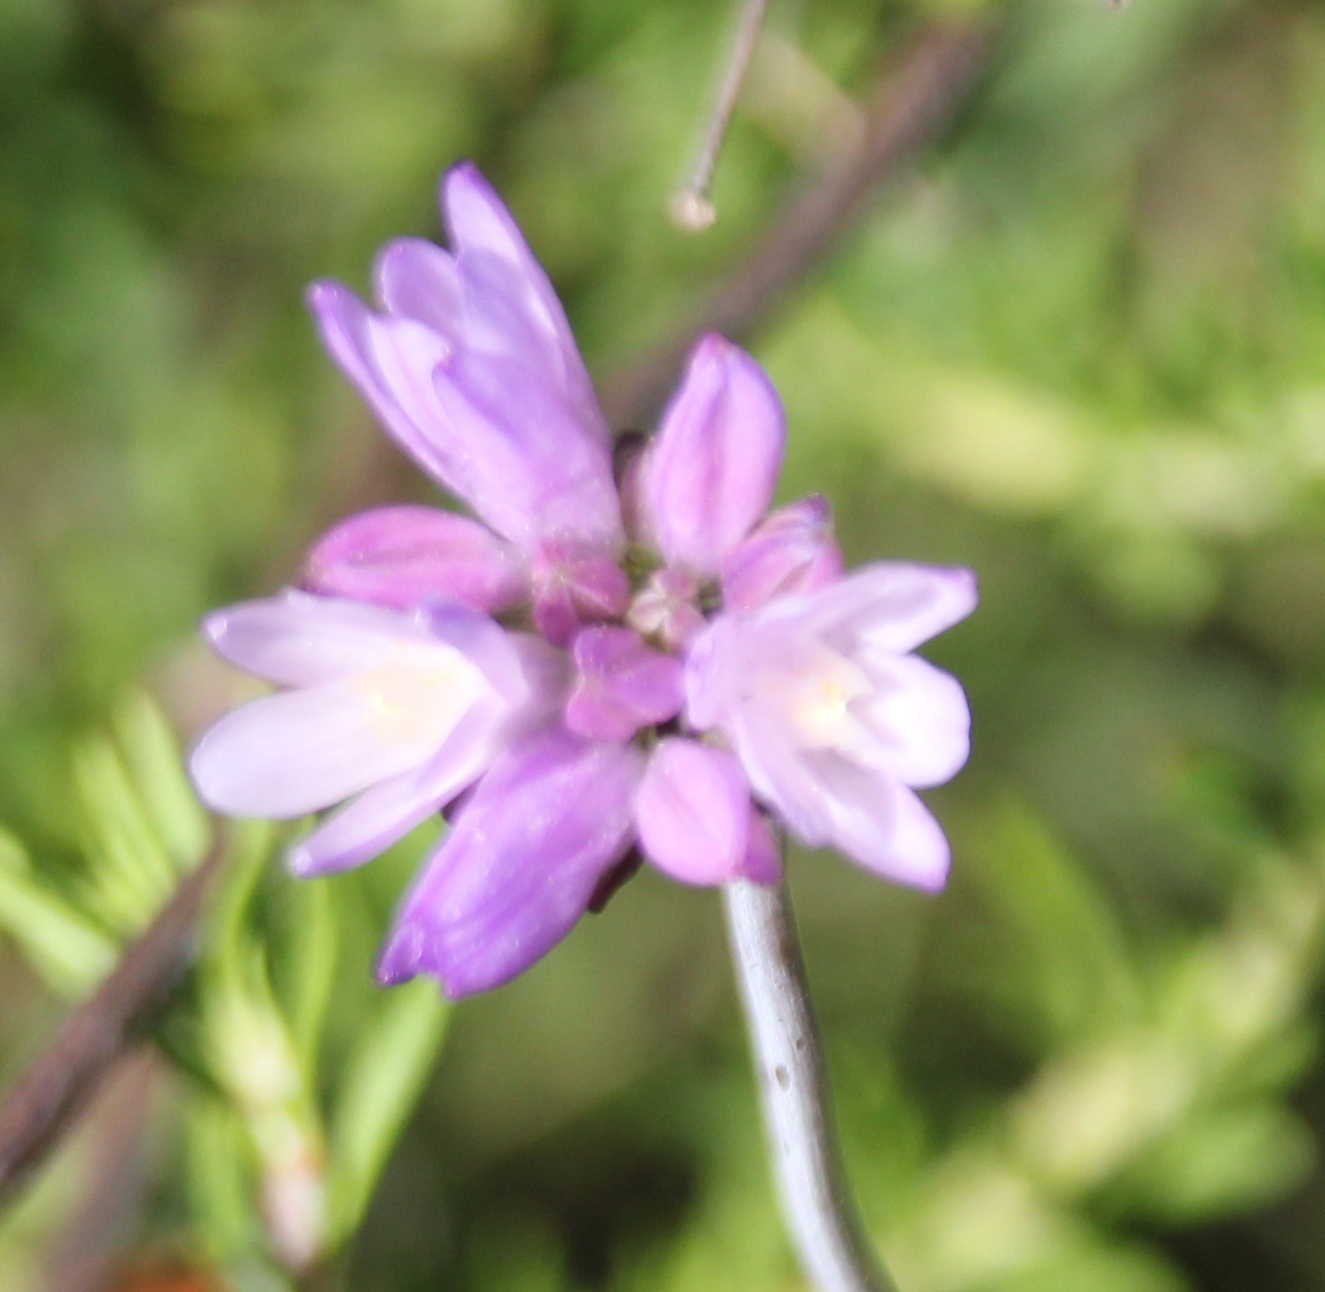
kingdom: Plantae
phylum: Tracheophyta
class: Liliopsida
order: Asparagales
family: Asparagaceae
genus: Dipterostemon
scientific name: Dipterostemon capitatus
